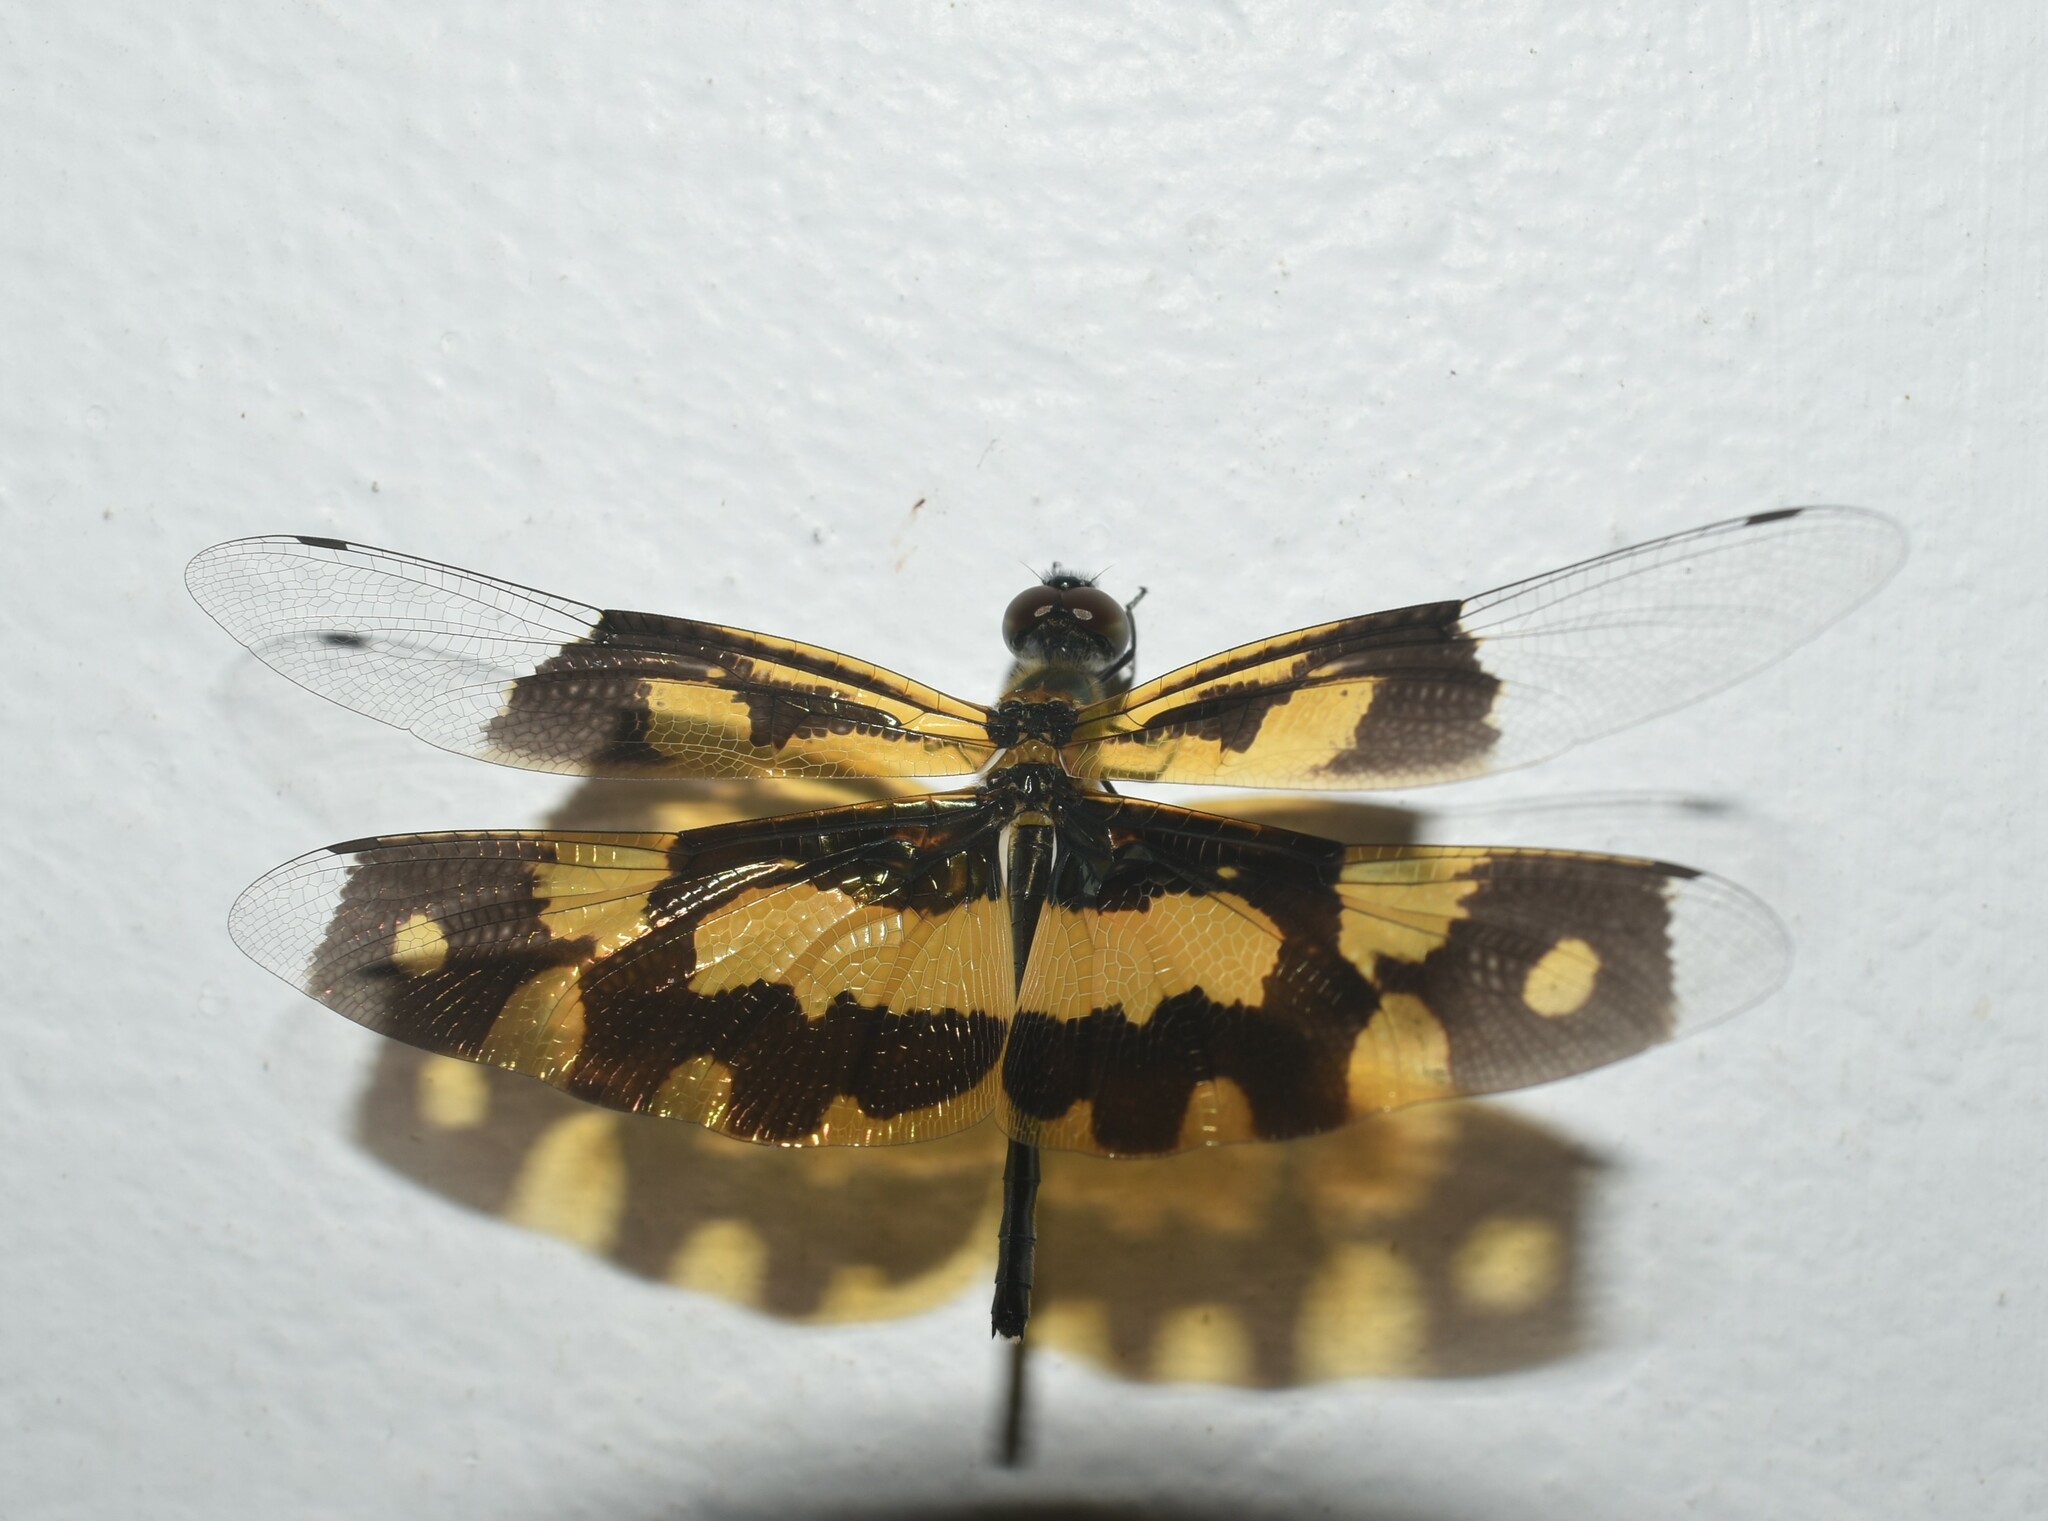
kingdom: Animalia
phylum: Arthropoda
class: Insecta
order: Odonata
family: Libellulidae
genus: Rhyothemis
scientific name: Rhyothemis variegata
